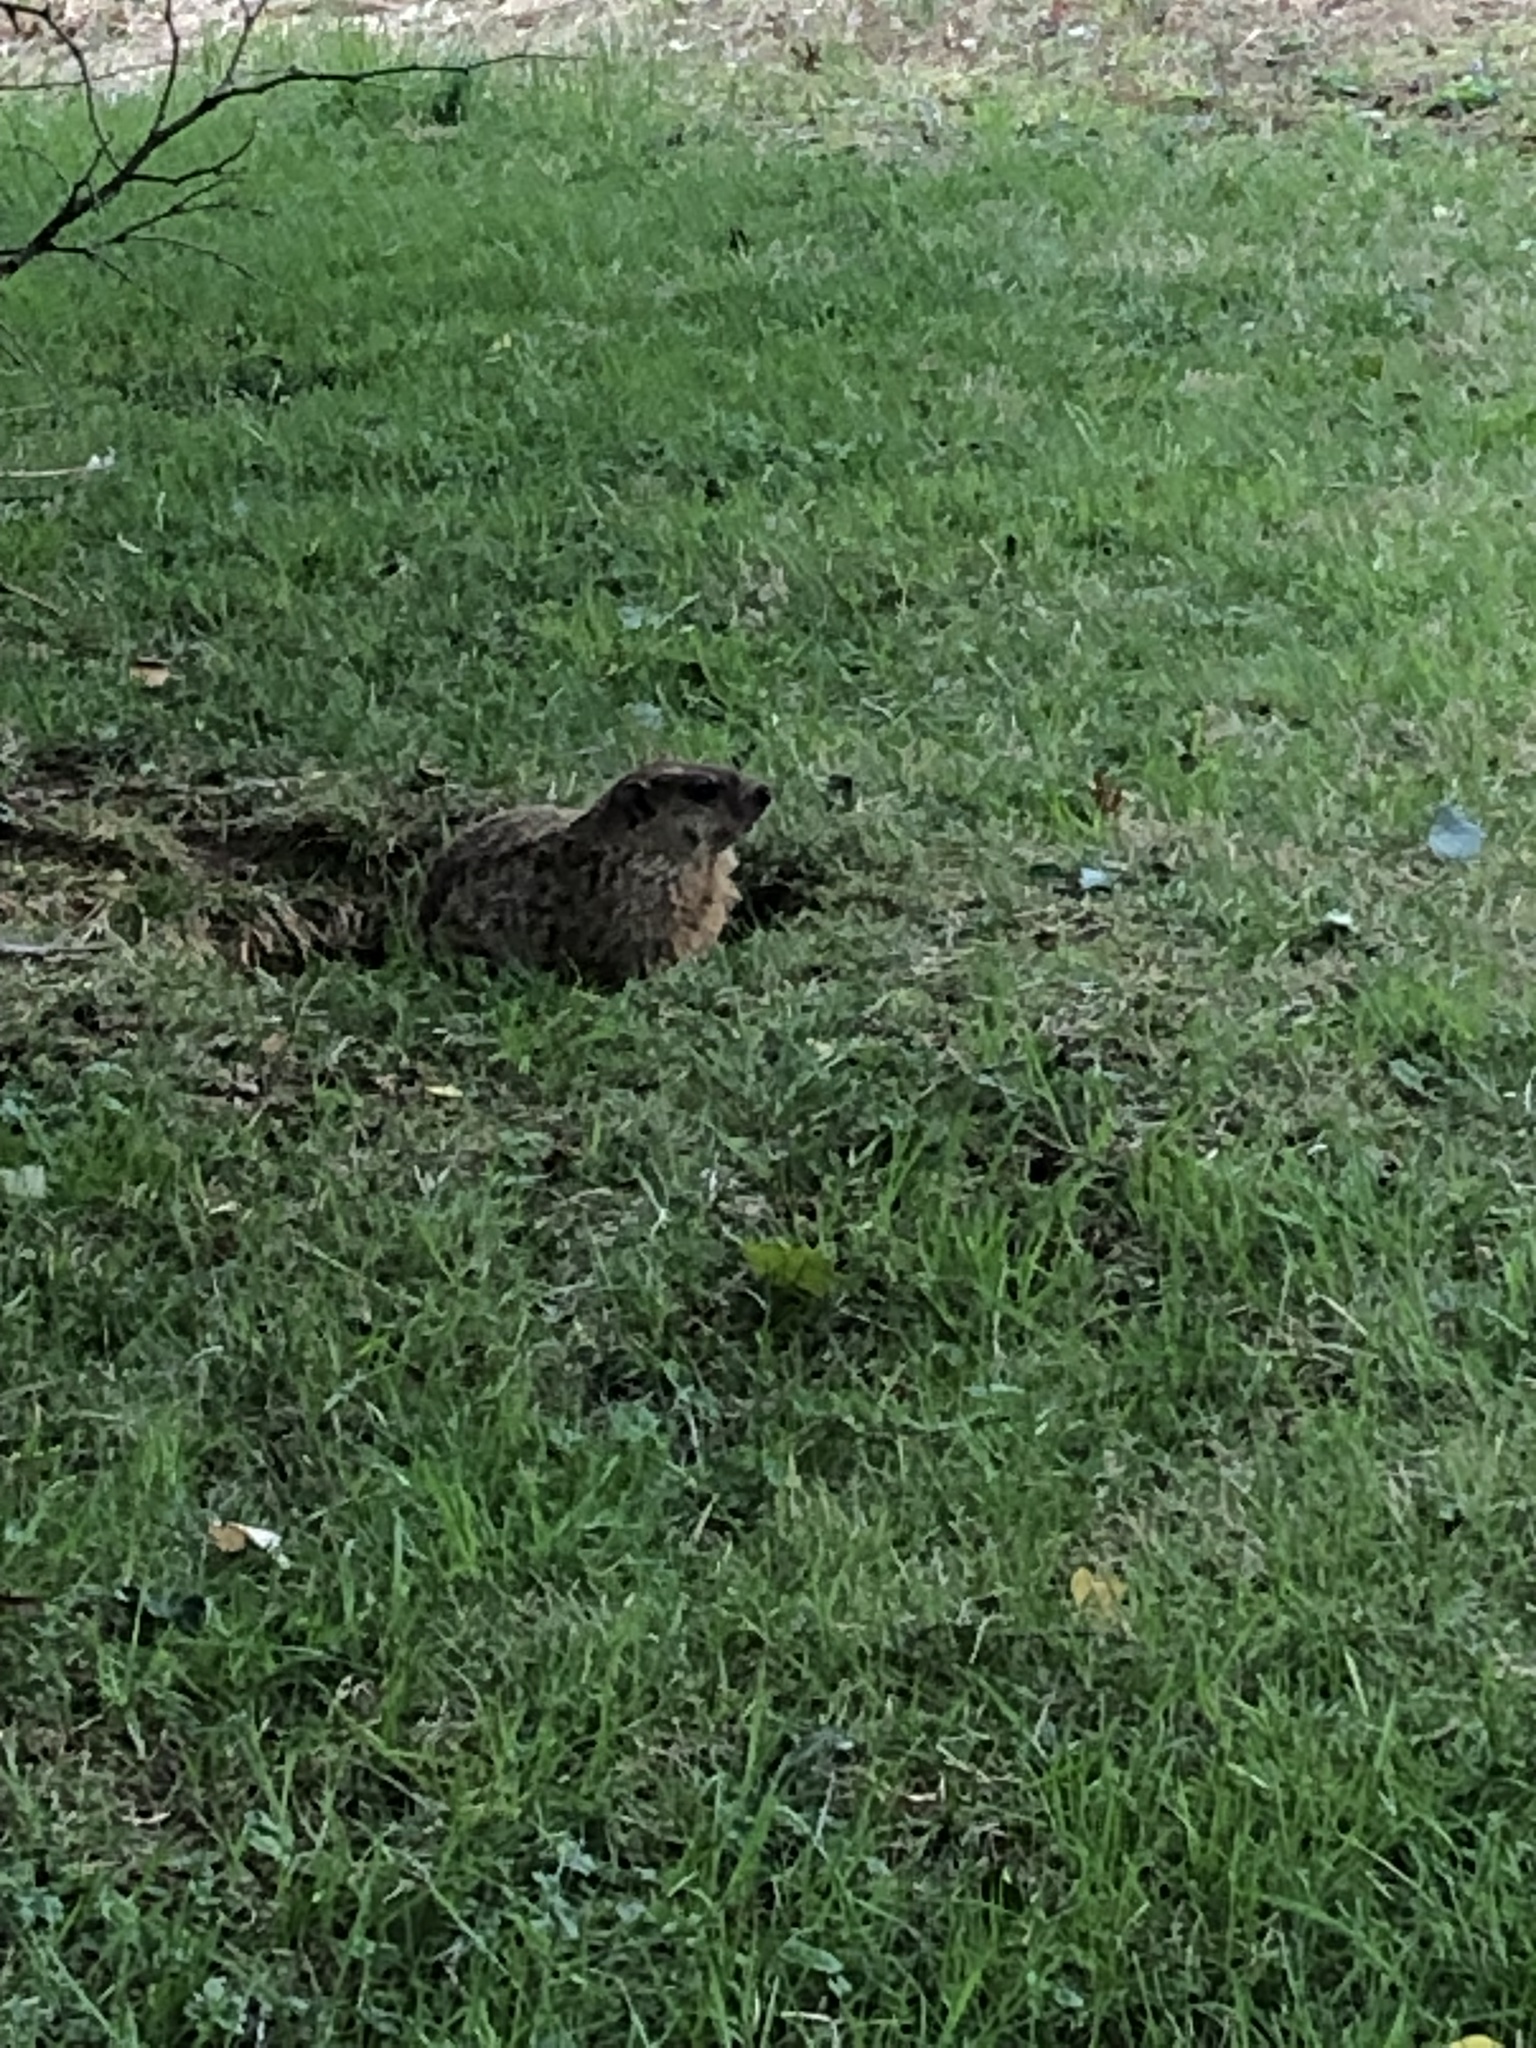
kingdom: Animalia
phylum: Chordata
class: Mammalia
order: Rodentia
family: Sciuridae
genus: Marmota
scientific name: Marmota monax
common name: Groundhog
